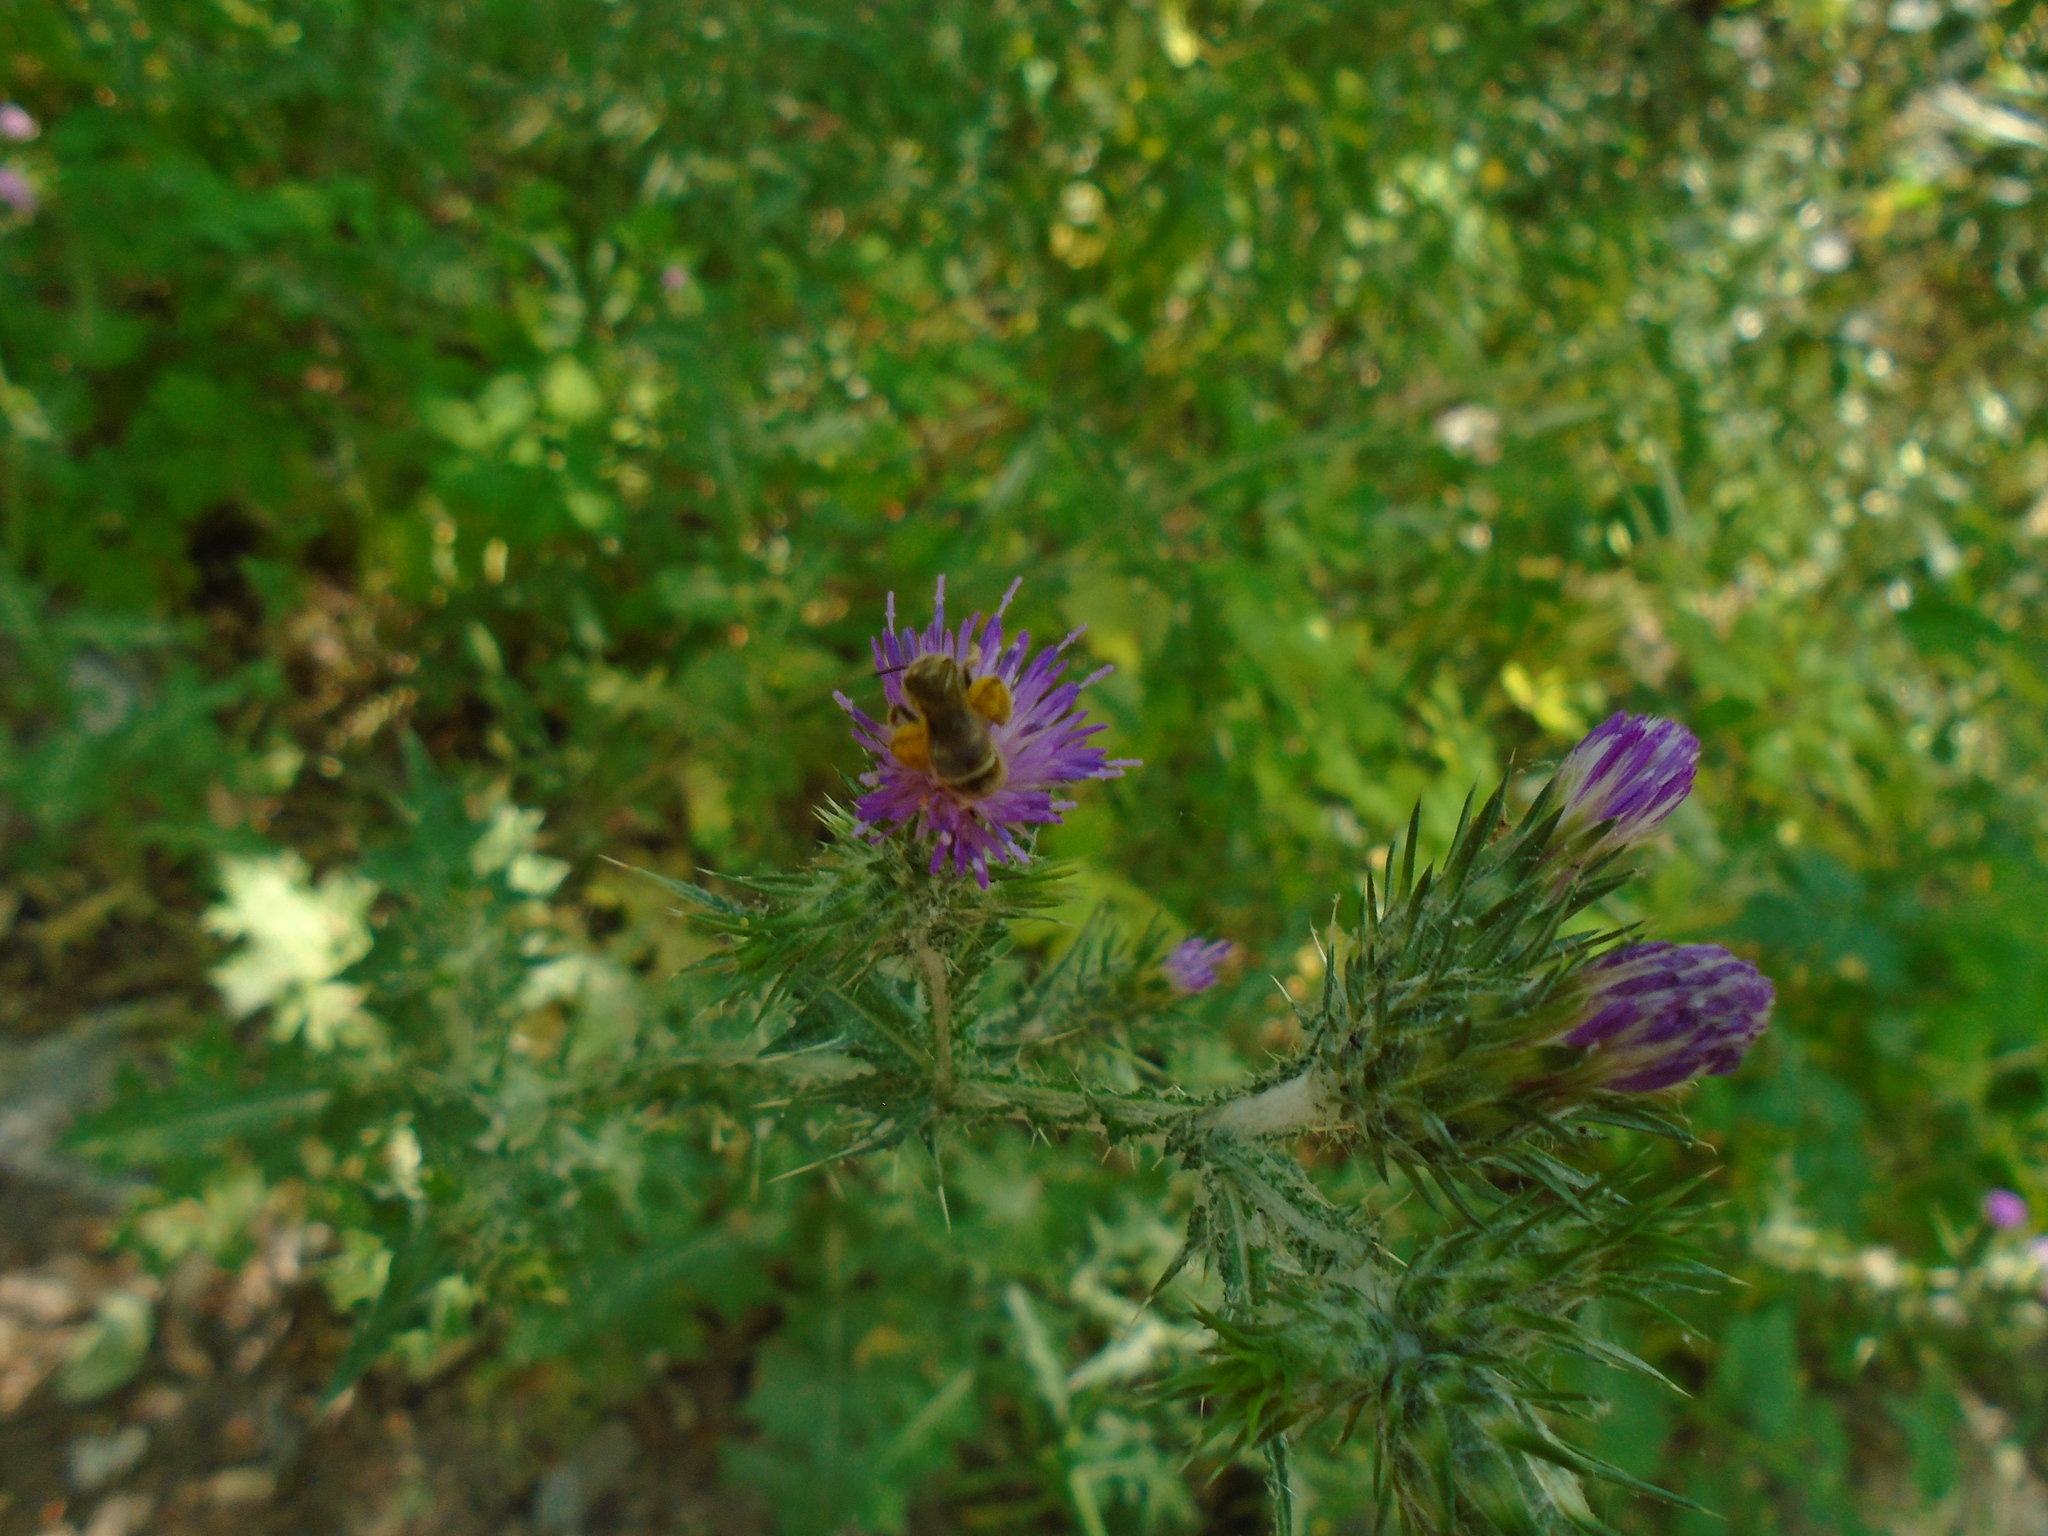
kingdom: Plantae
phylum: Tracheophyta
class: Magnoliopsida
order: Asterales
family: Asteraceae
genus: Carduus
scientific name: Carduus pycnocephalus
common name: Plymouth thistle
